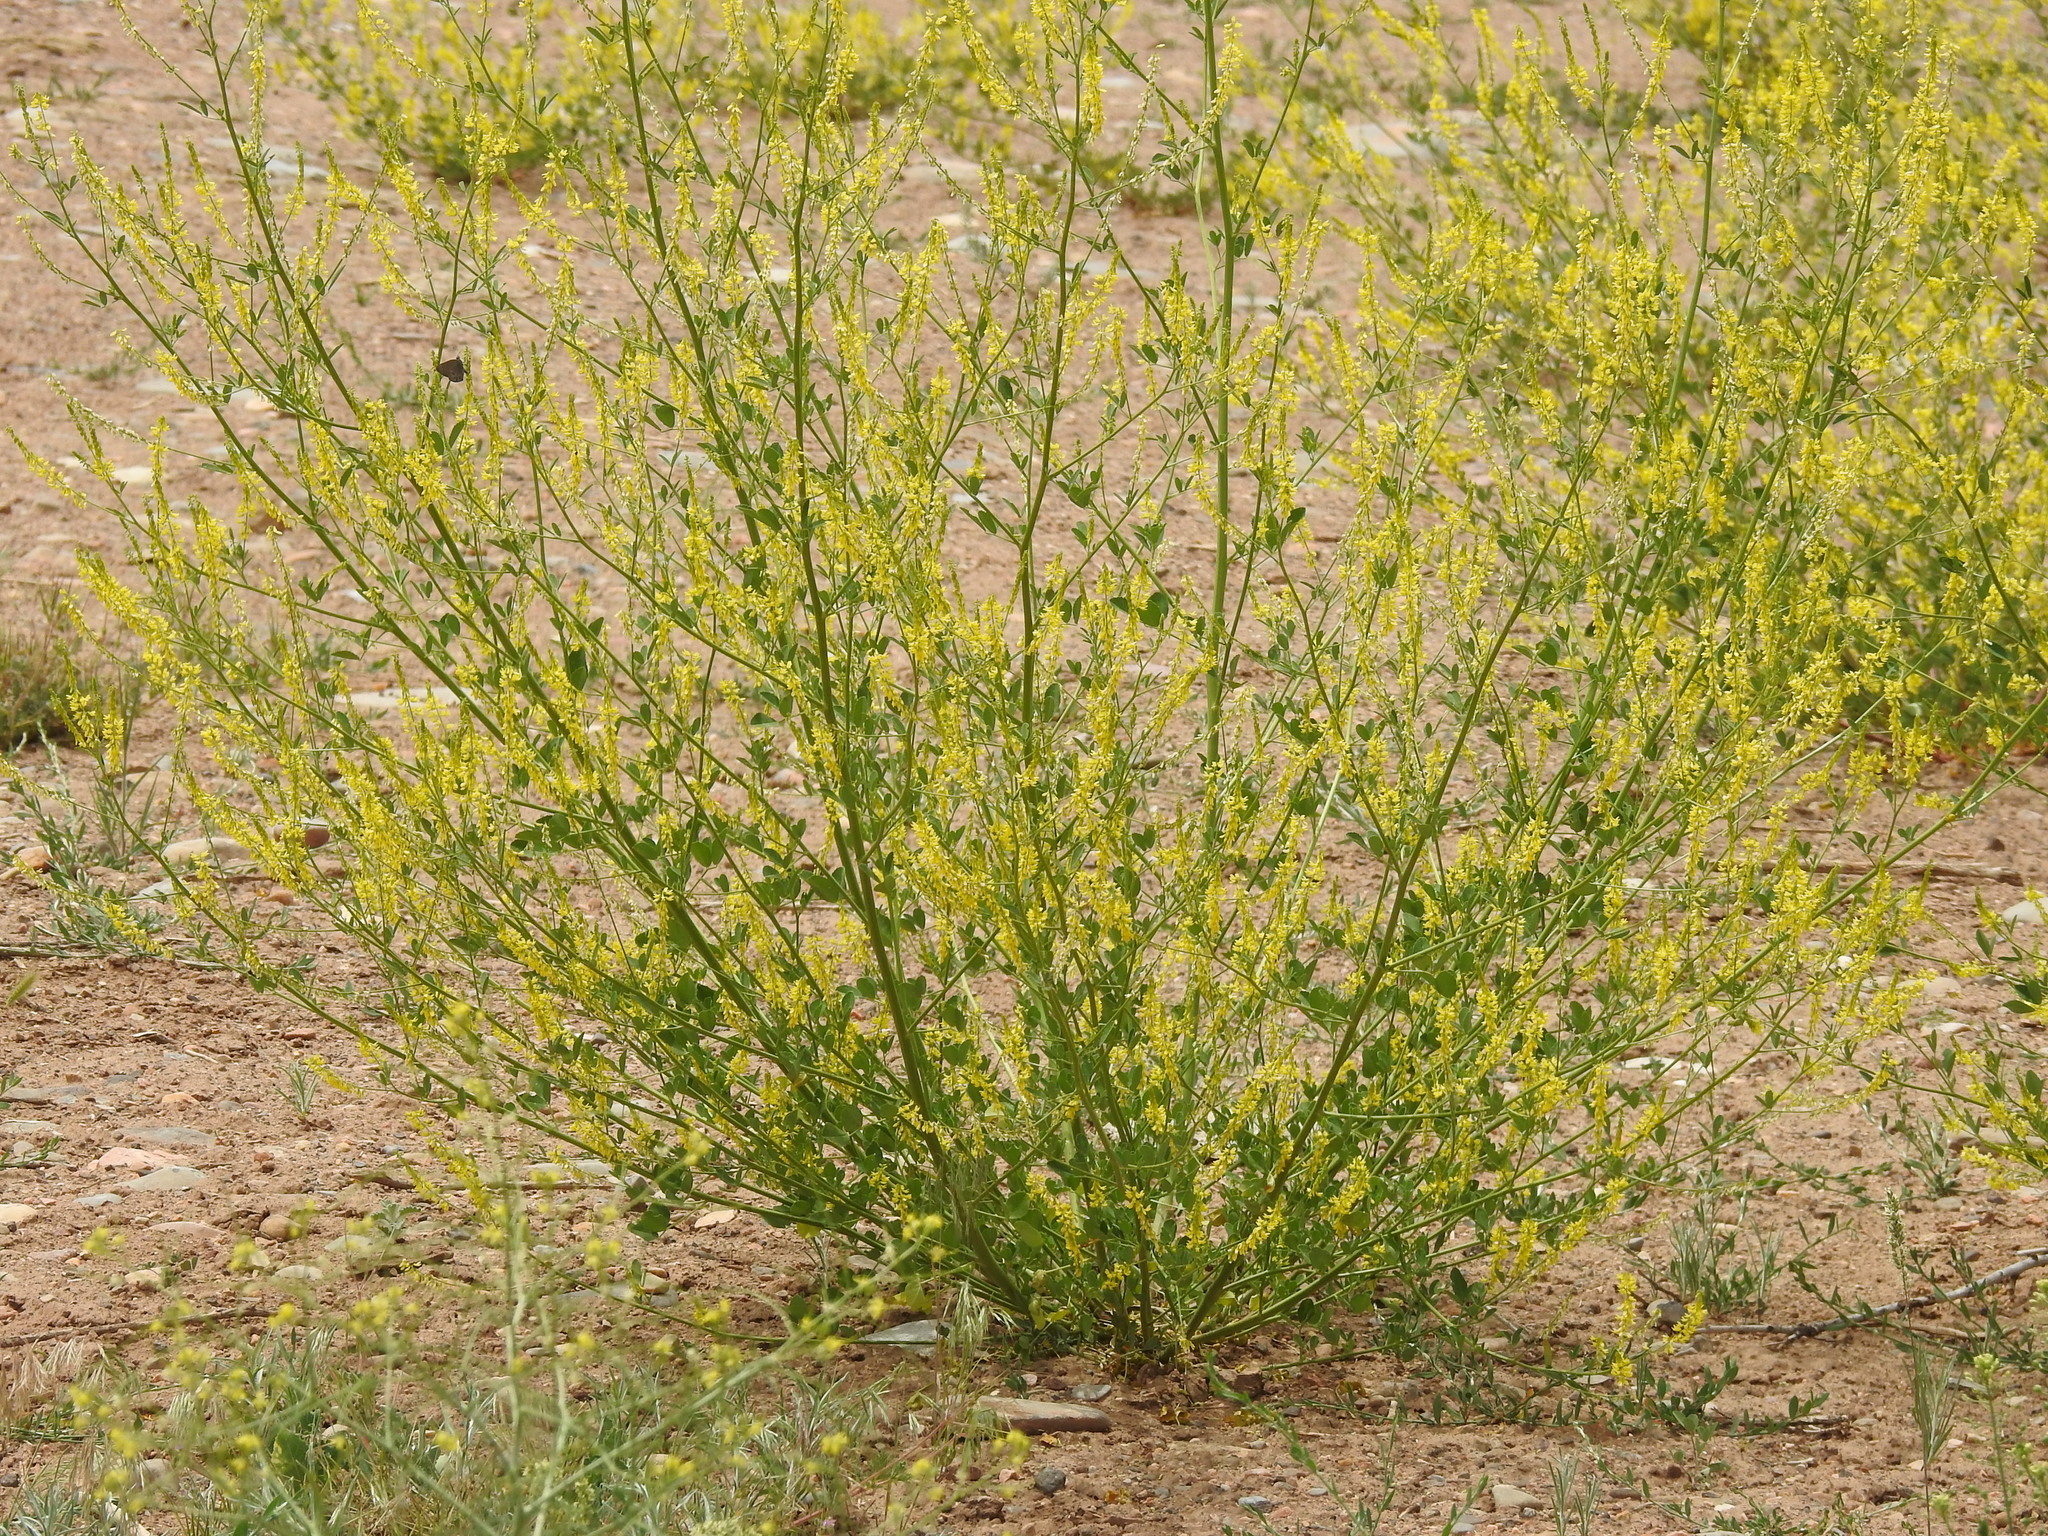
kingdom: Plantae
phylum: Tracheophyta
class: Magnoliopsida
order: Fabales
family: Fabaceae
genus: Melilotus
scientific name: Melilotus officinalis
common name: Sweetclover
